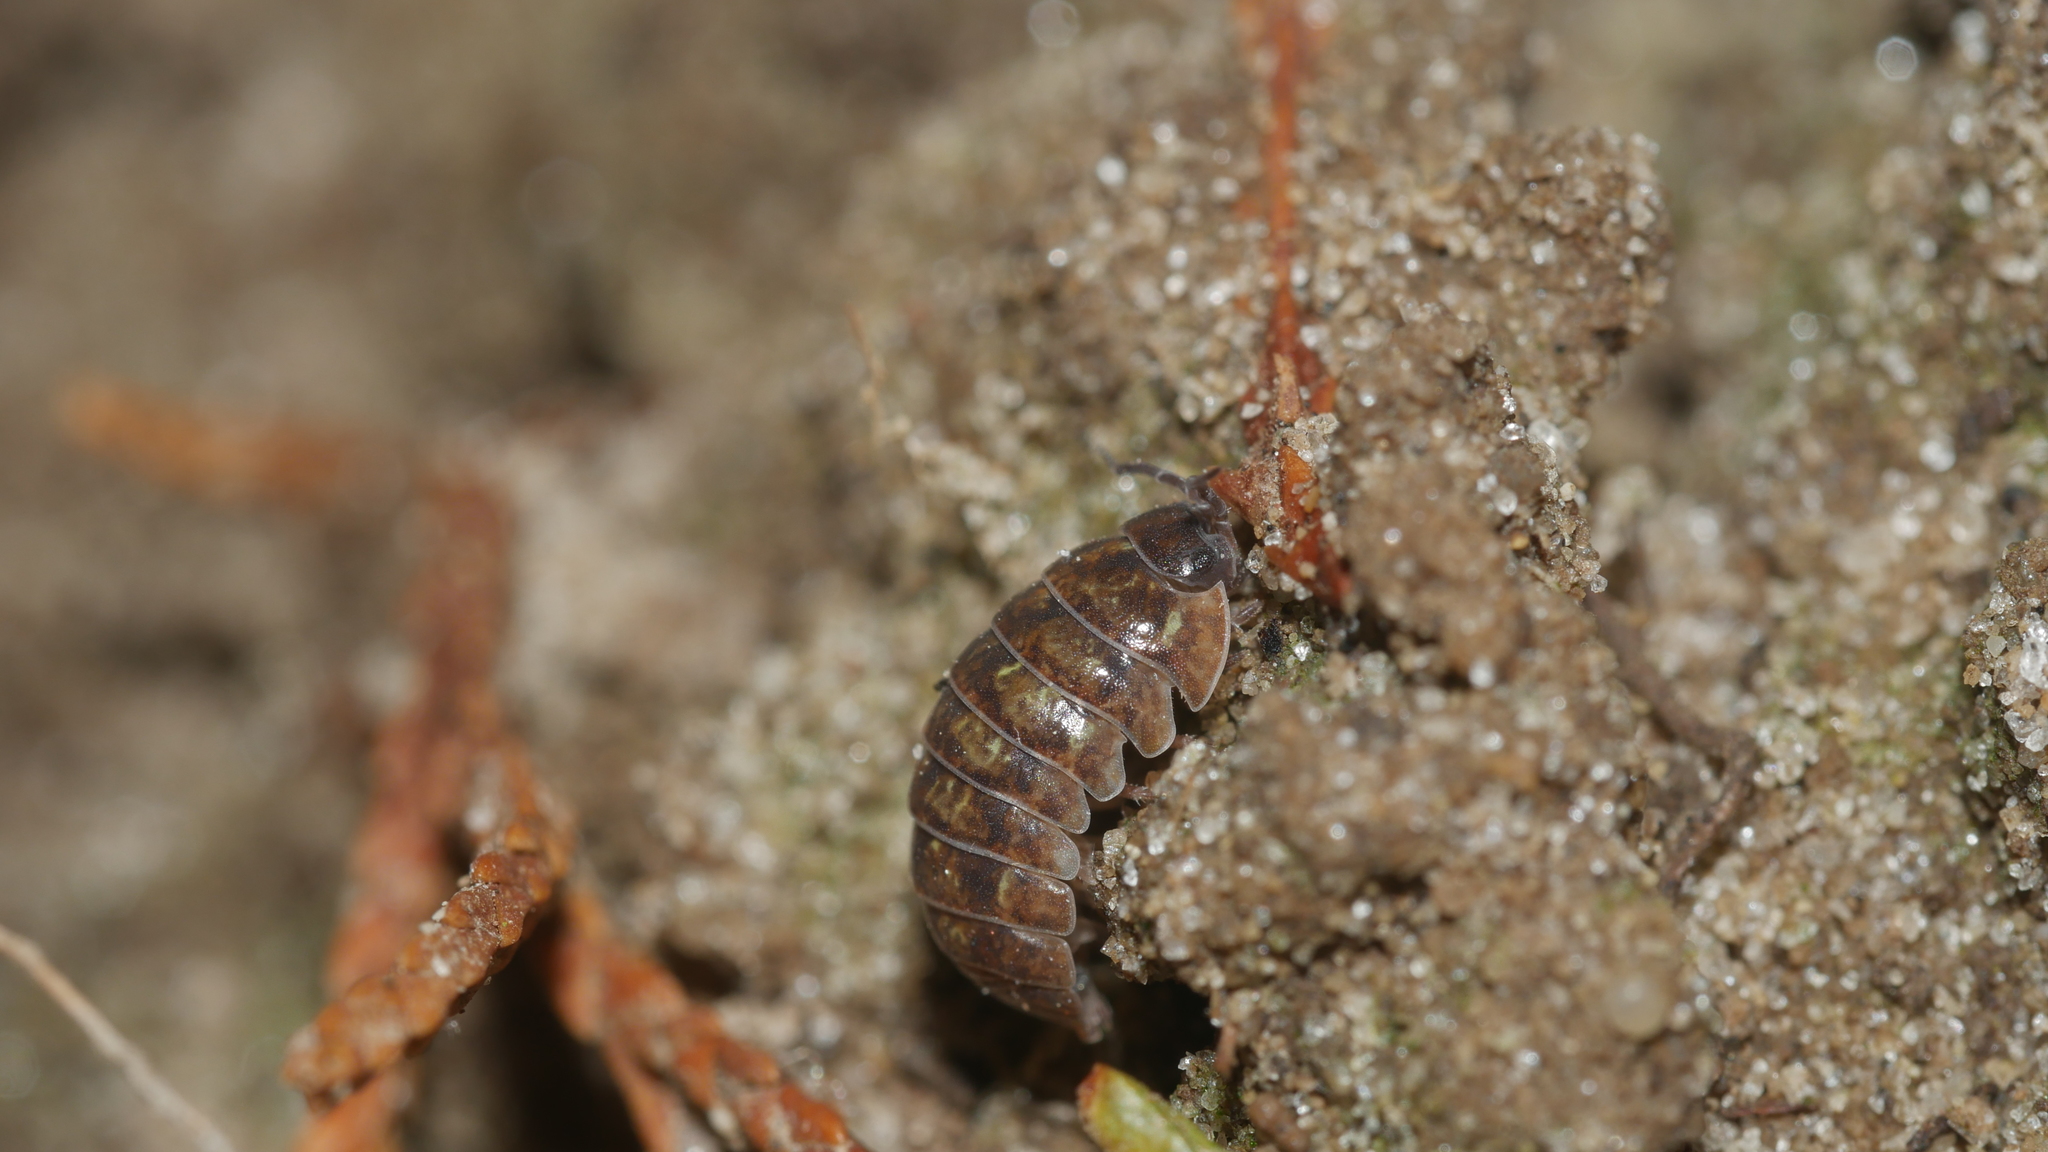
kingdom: Animalia
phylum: Arthropoda
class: Malacostraca
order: Isopoda
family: Armadillidiidae
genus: Armadillidium
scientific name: Armadillidium vulgare
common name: Common pill woodlouse
